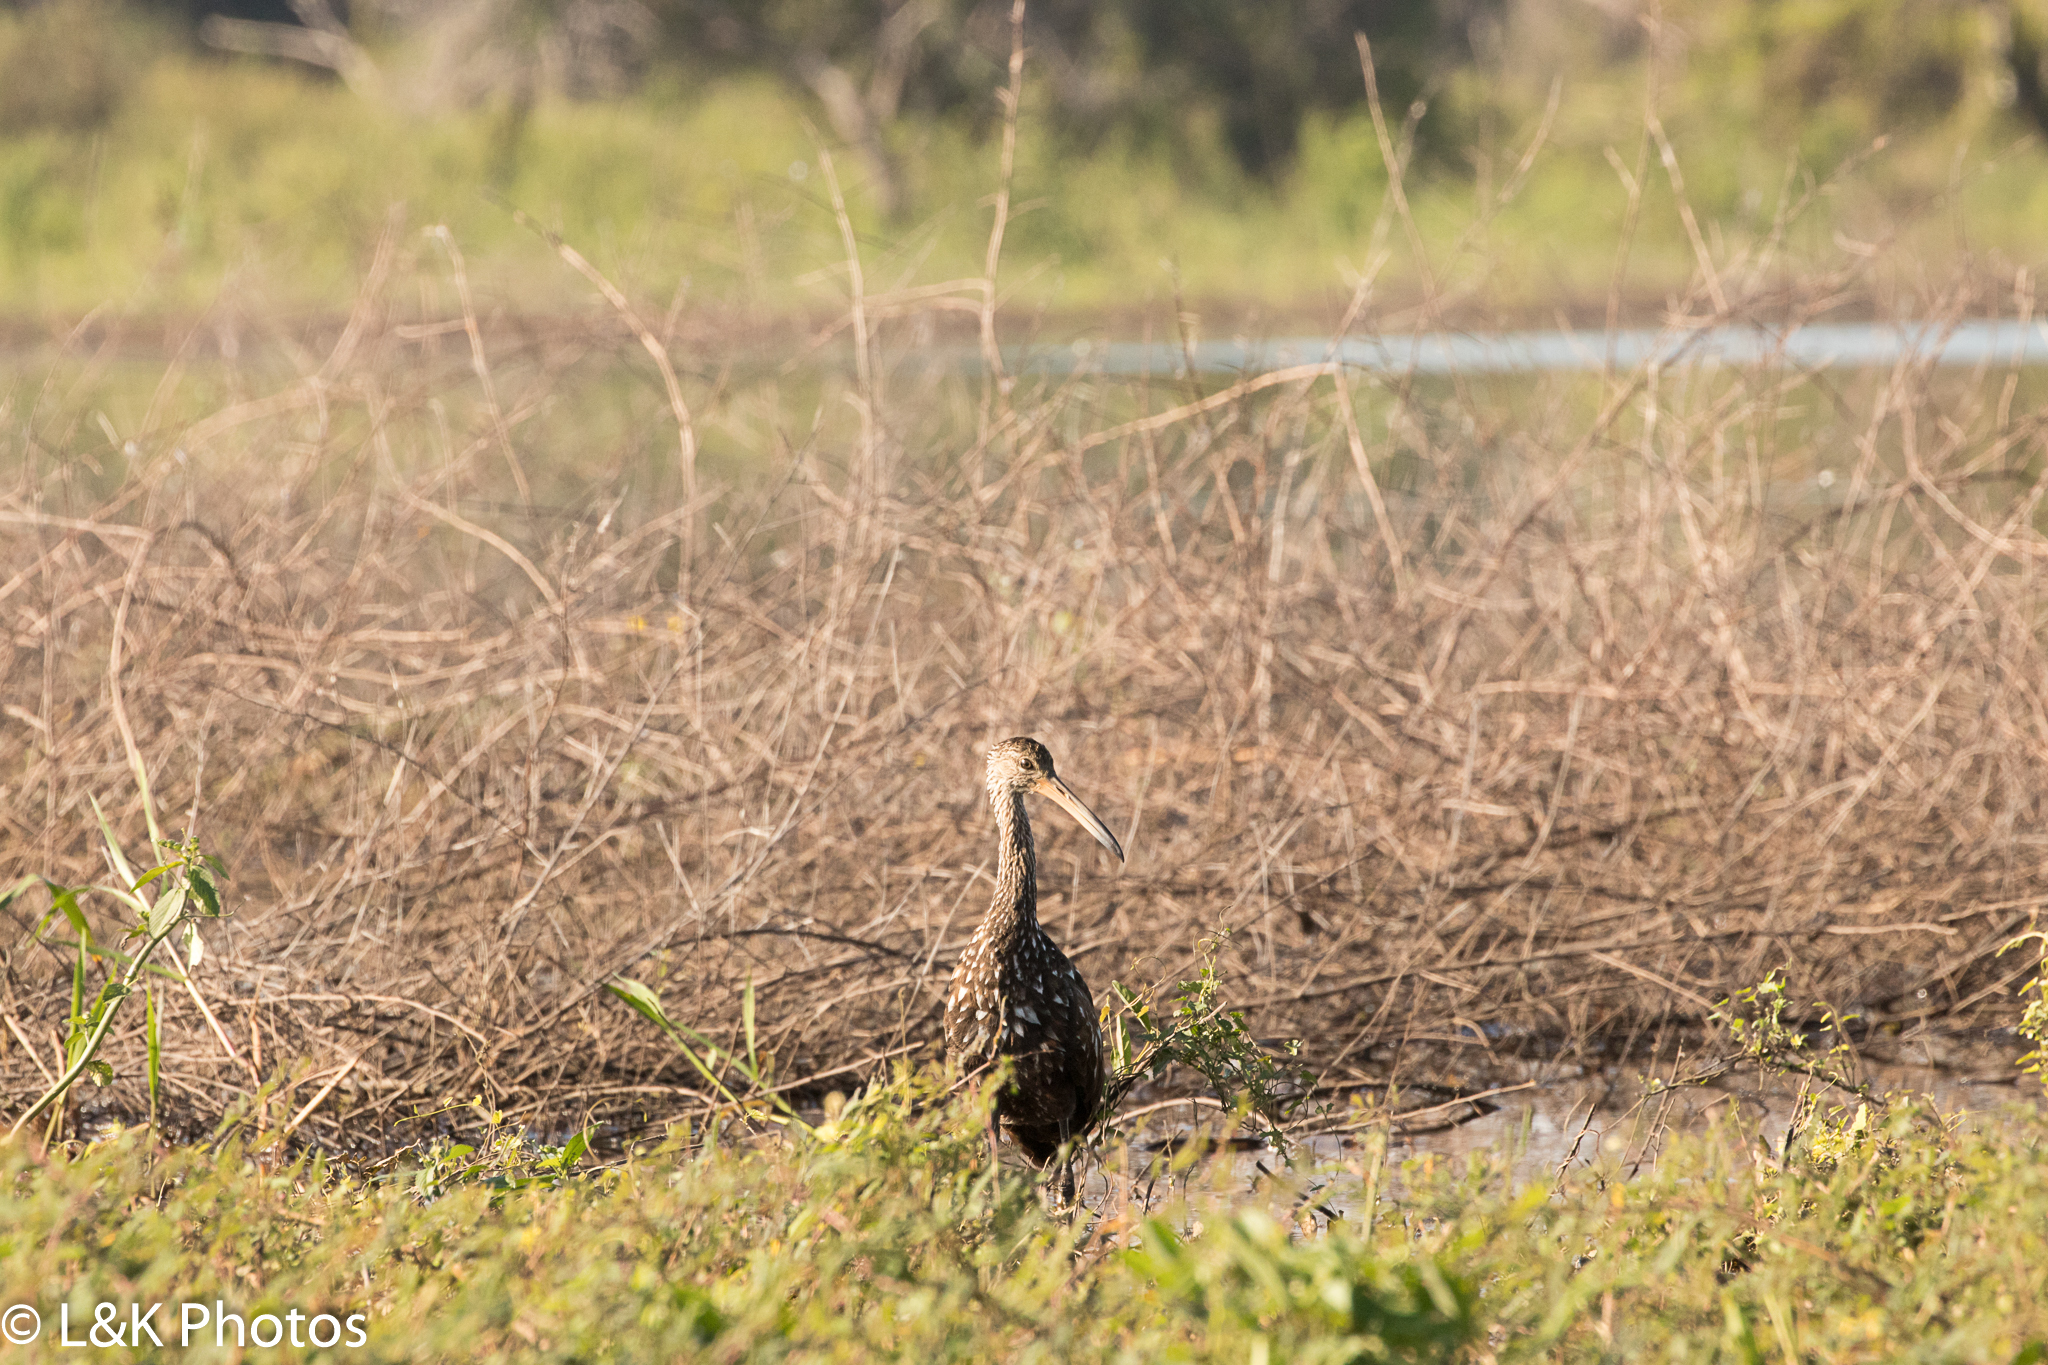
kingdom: Animalia
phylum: Chordata
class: Aves
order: Gruiformes
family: Aramidae
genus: Aramus
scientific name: Aramus guarauna
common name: Limpkin
